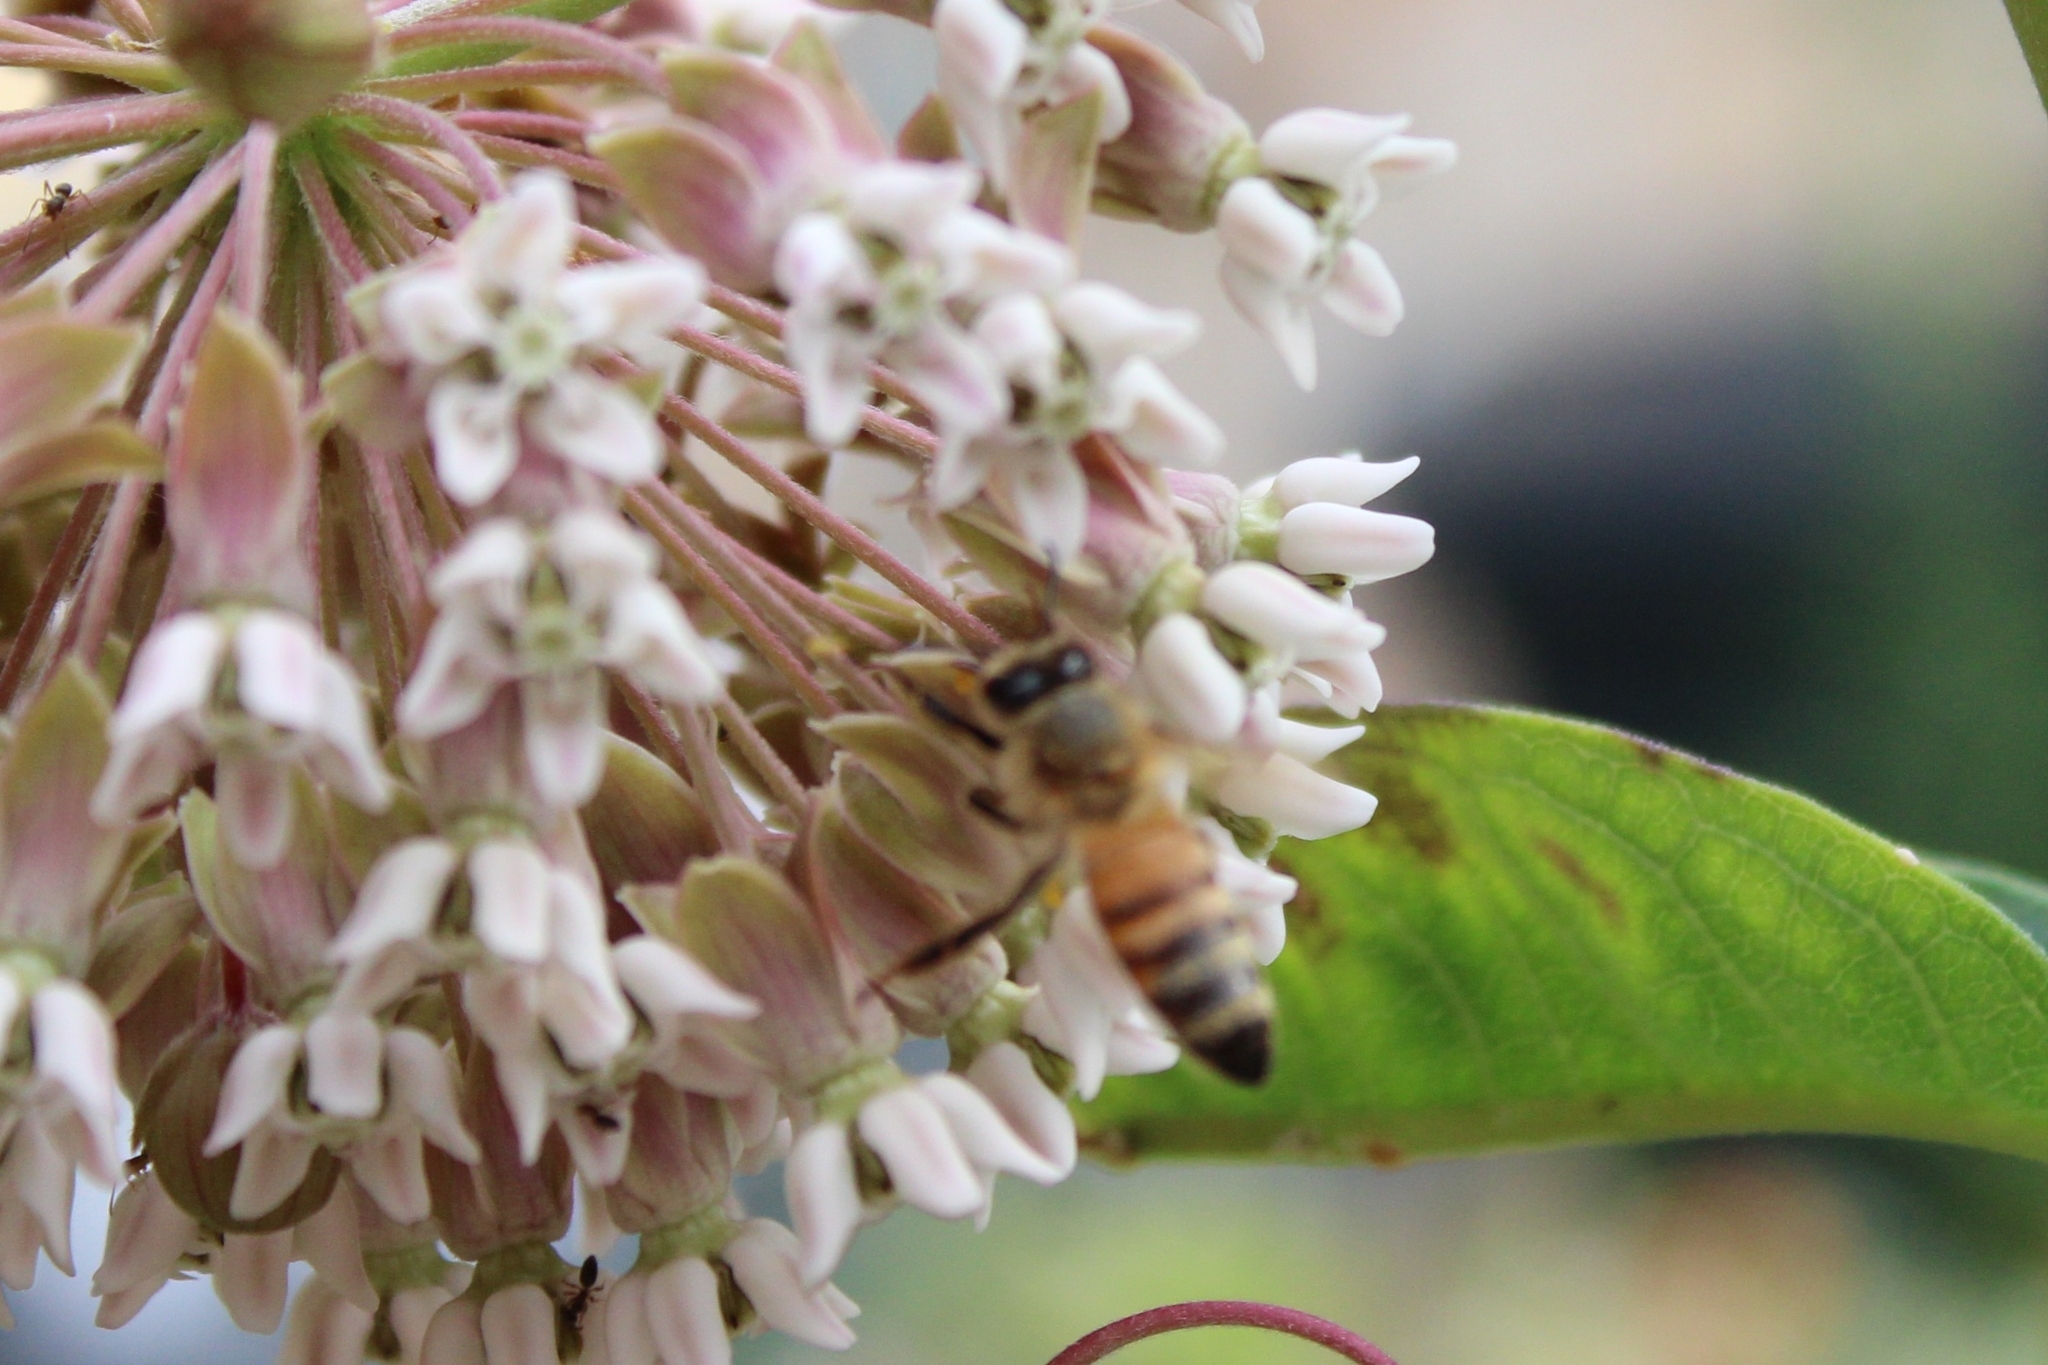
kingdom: Animalia
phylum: Arthropoda
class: Insecta
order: Hymenoptera
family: Apidae
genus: Apis
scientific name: Apis mellifera
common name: Honey bee
